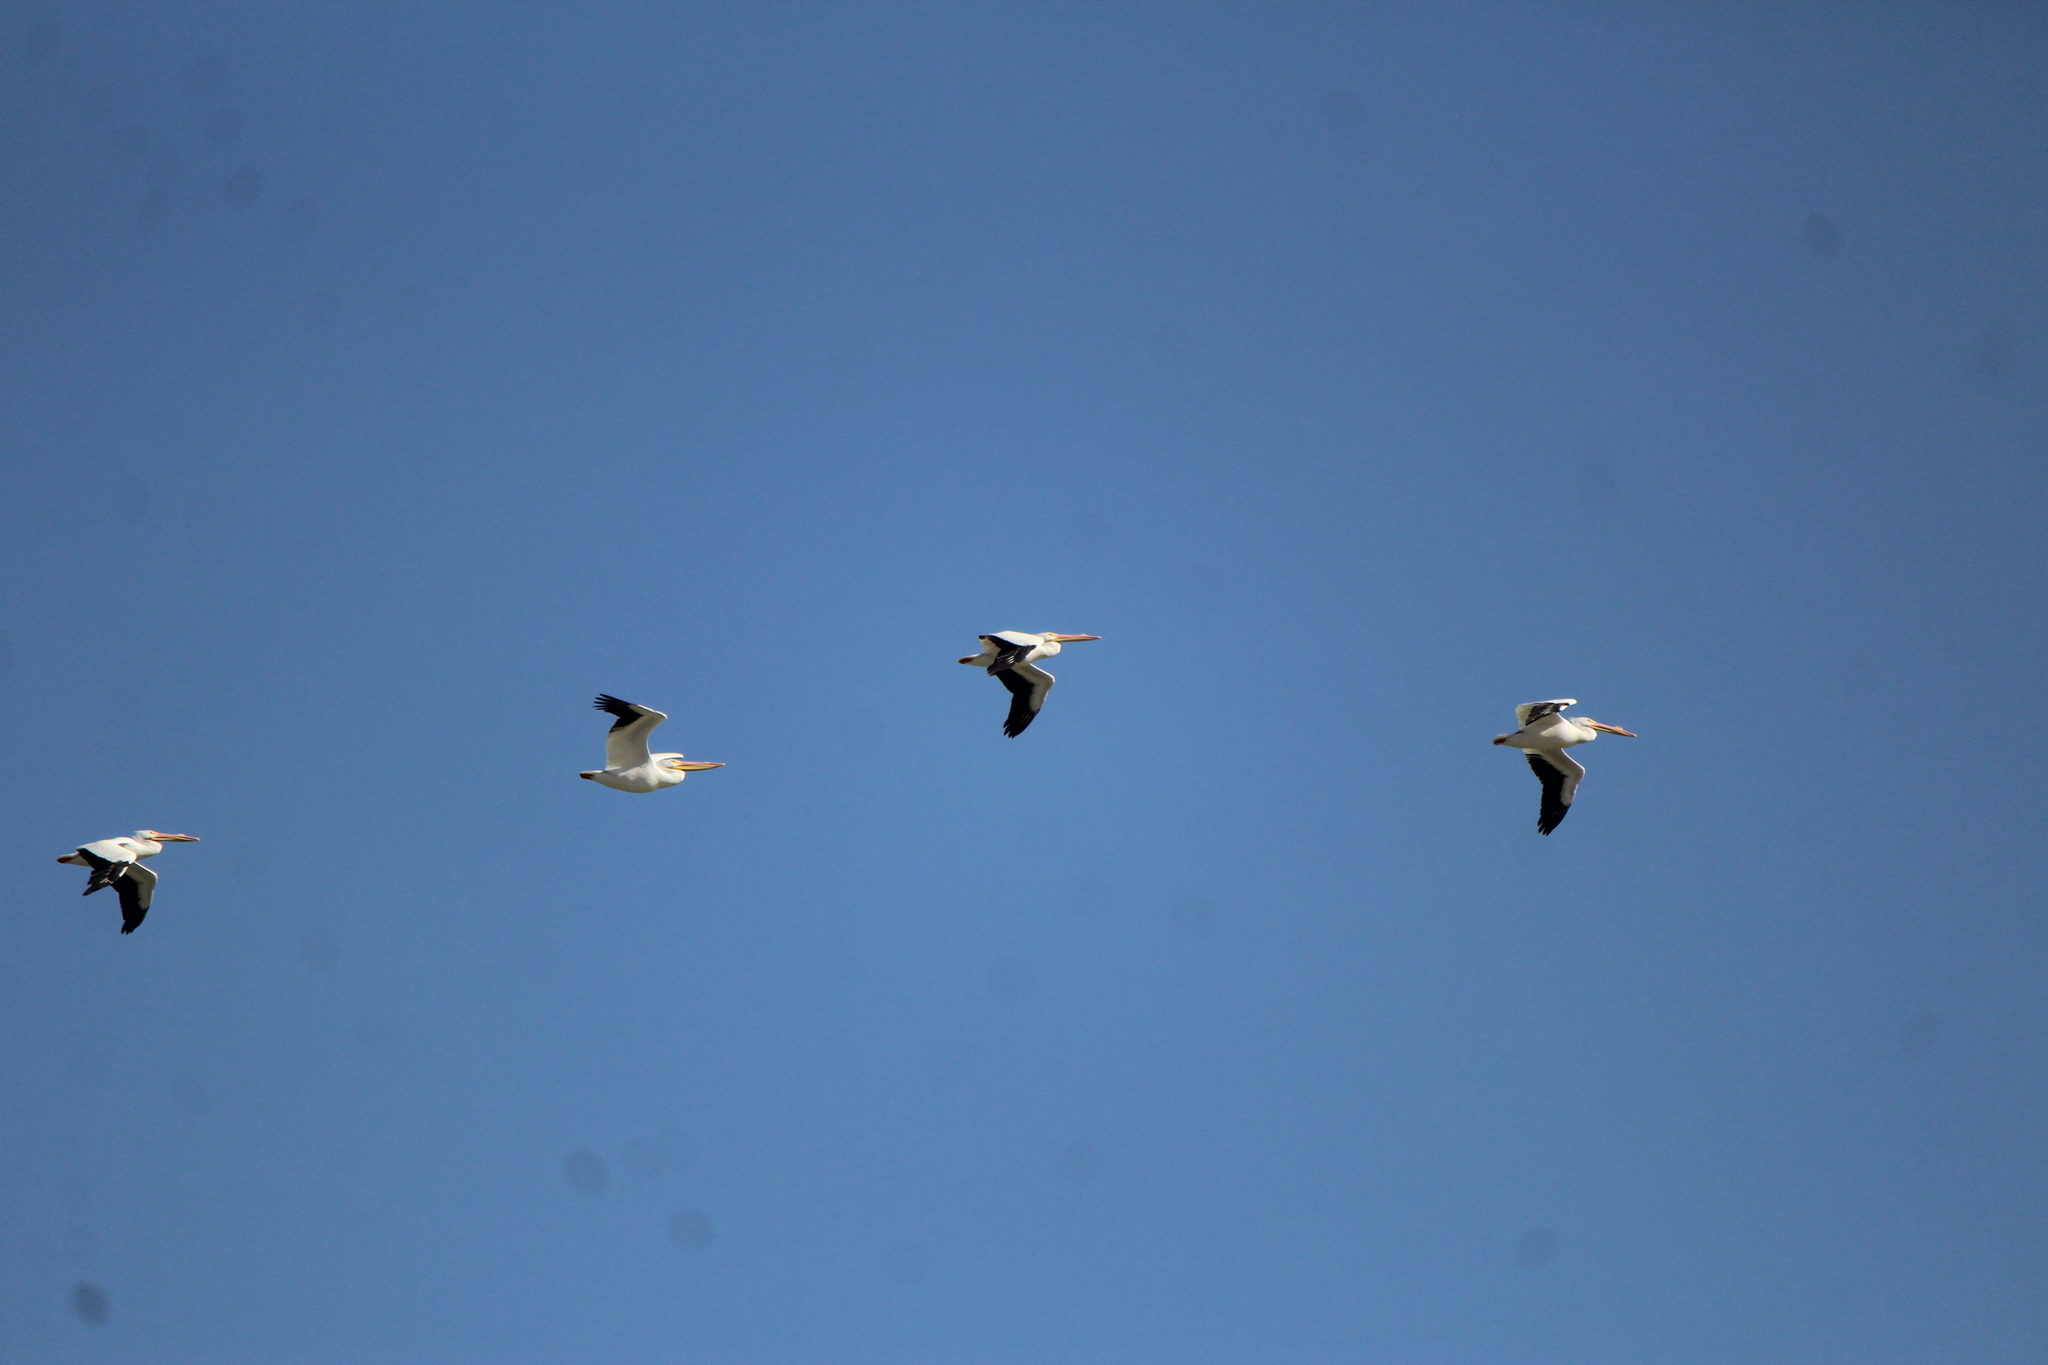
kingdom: Animalia
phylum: Chordata
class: Aves
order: Pelecaniformes
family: Pelecanidae
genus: Pelecanus
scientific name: Pelecanus erythrorhynchos
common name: American white pelican
